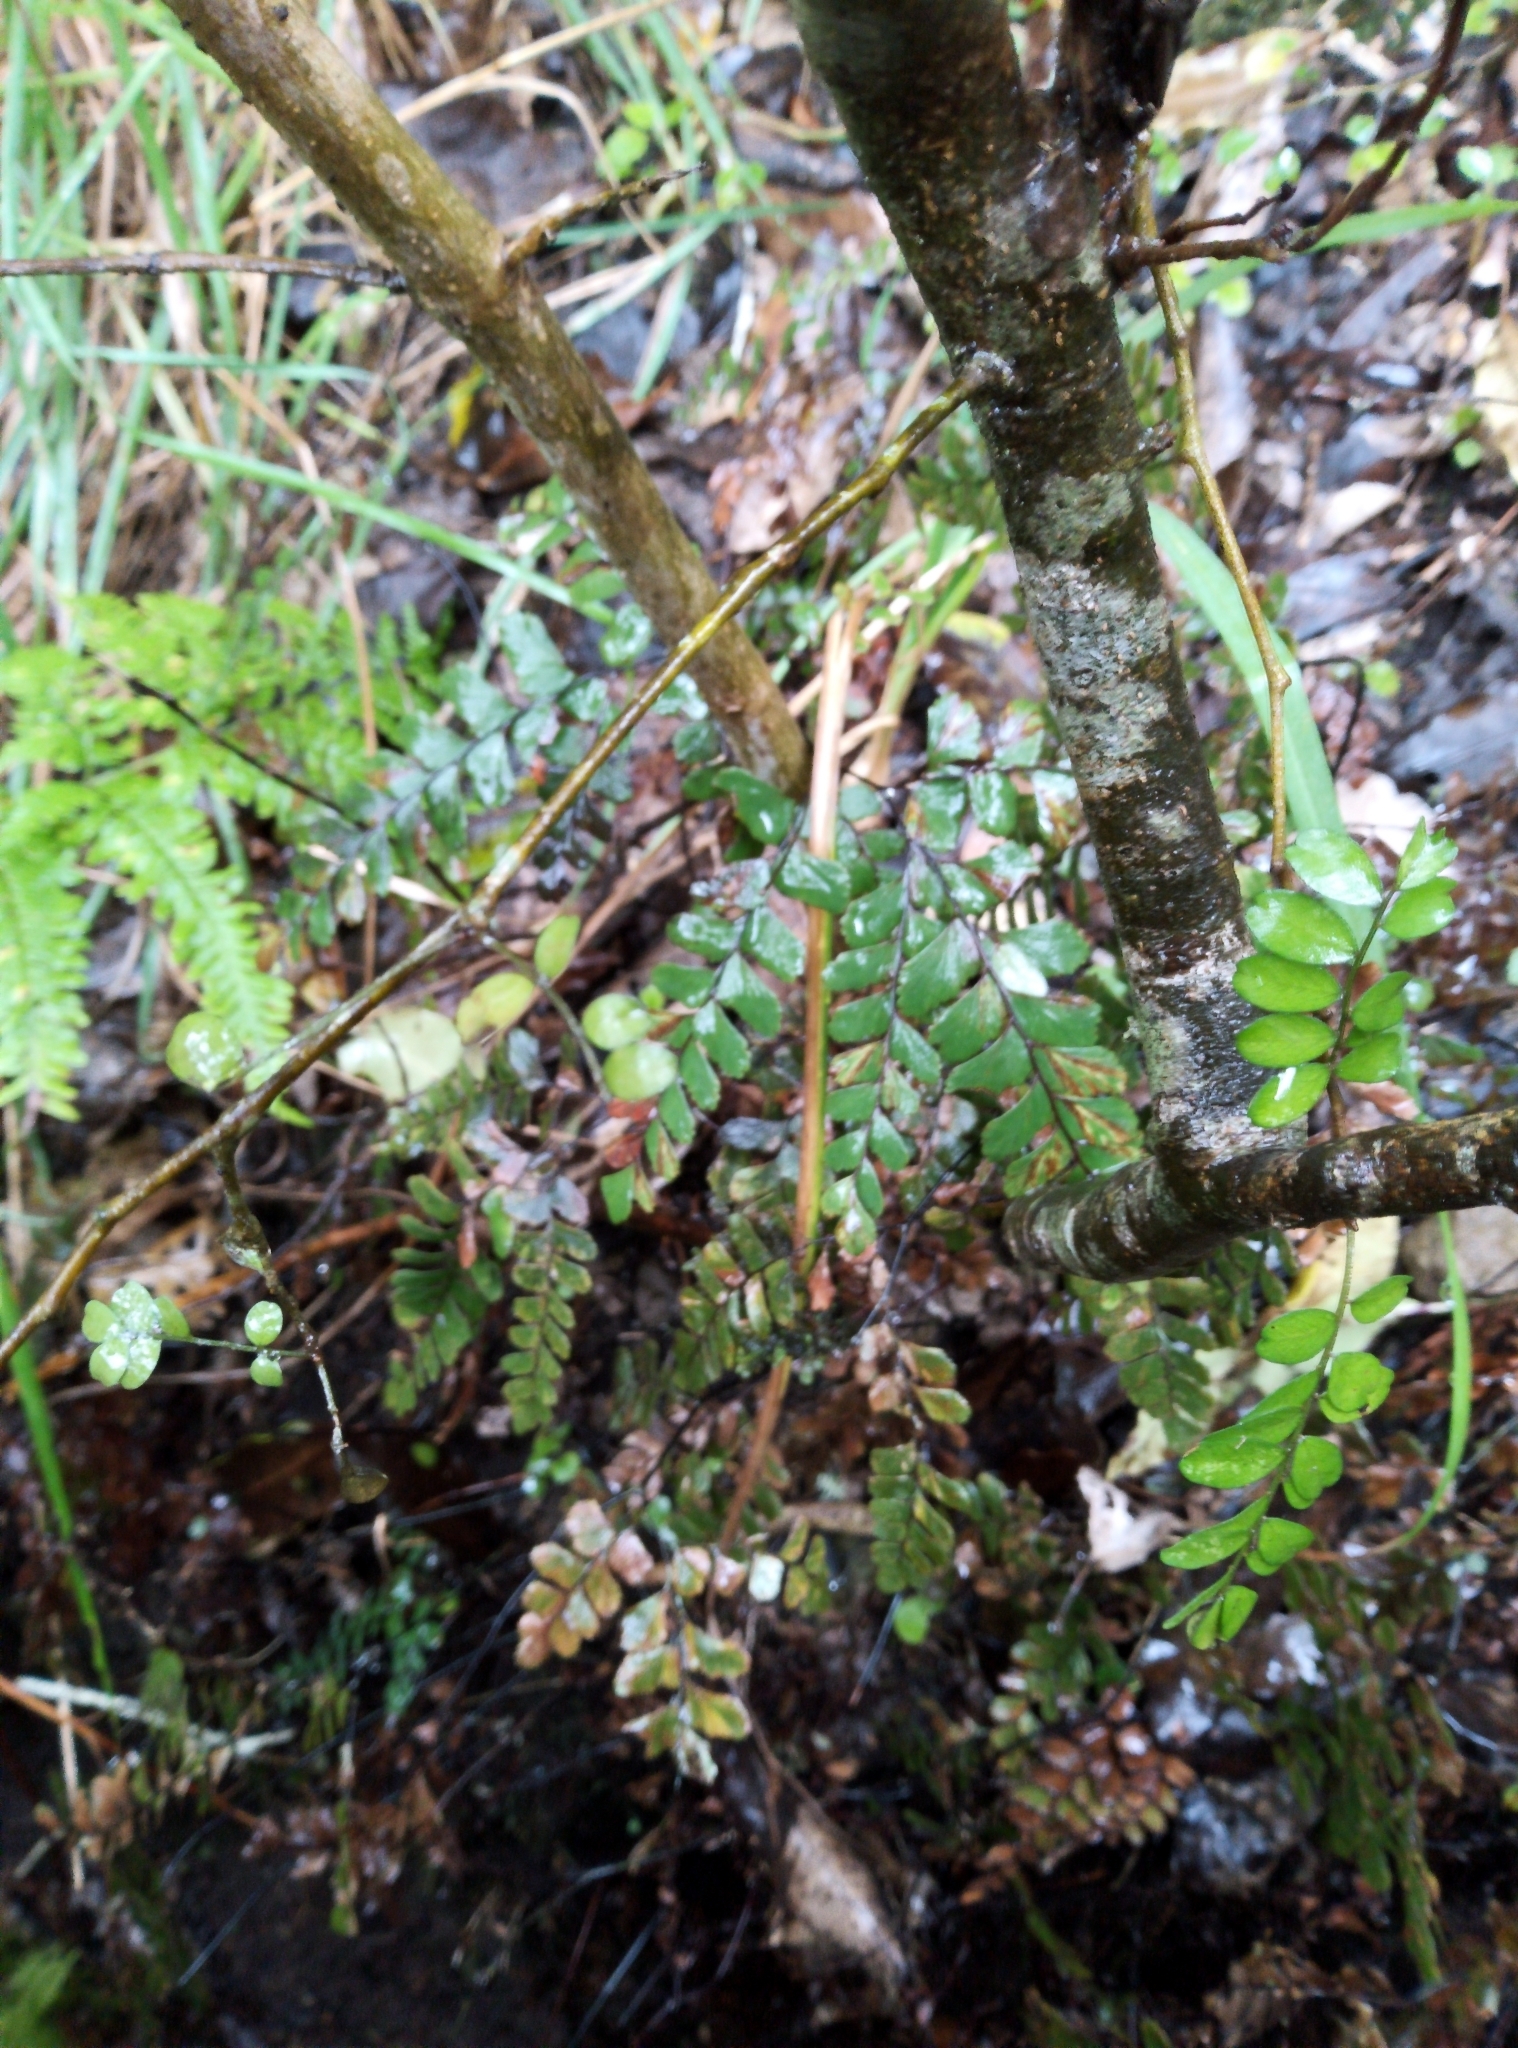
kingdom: Plantae
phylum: Tracheophyta
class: Polypodiopsida
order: Polypodiales
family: Pteridaceae
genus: Adiantum
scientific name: Adiantum cunninghamii
